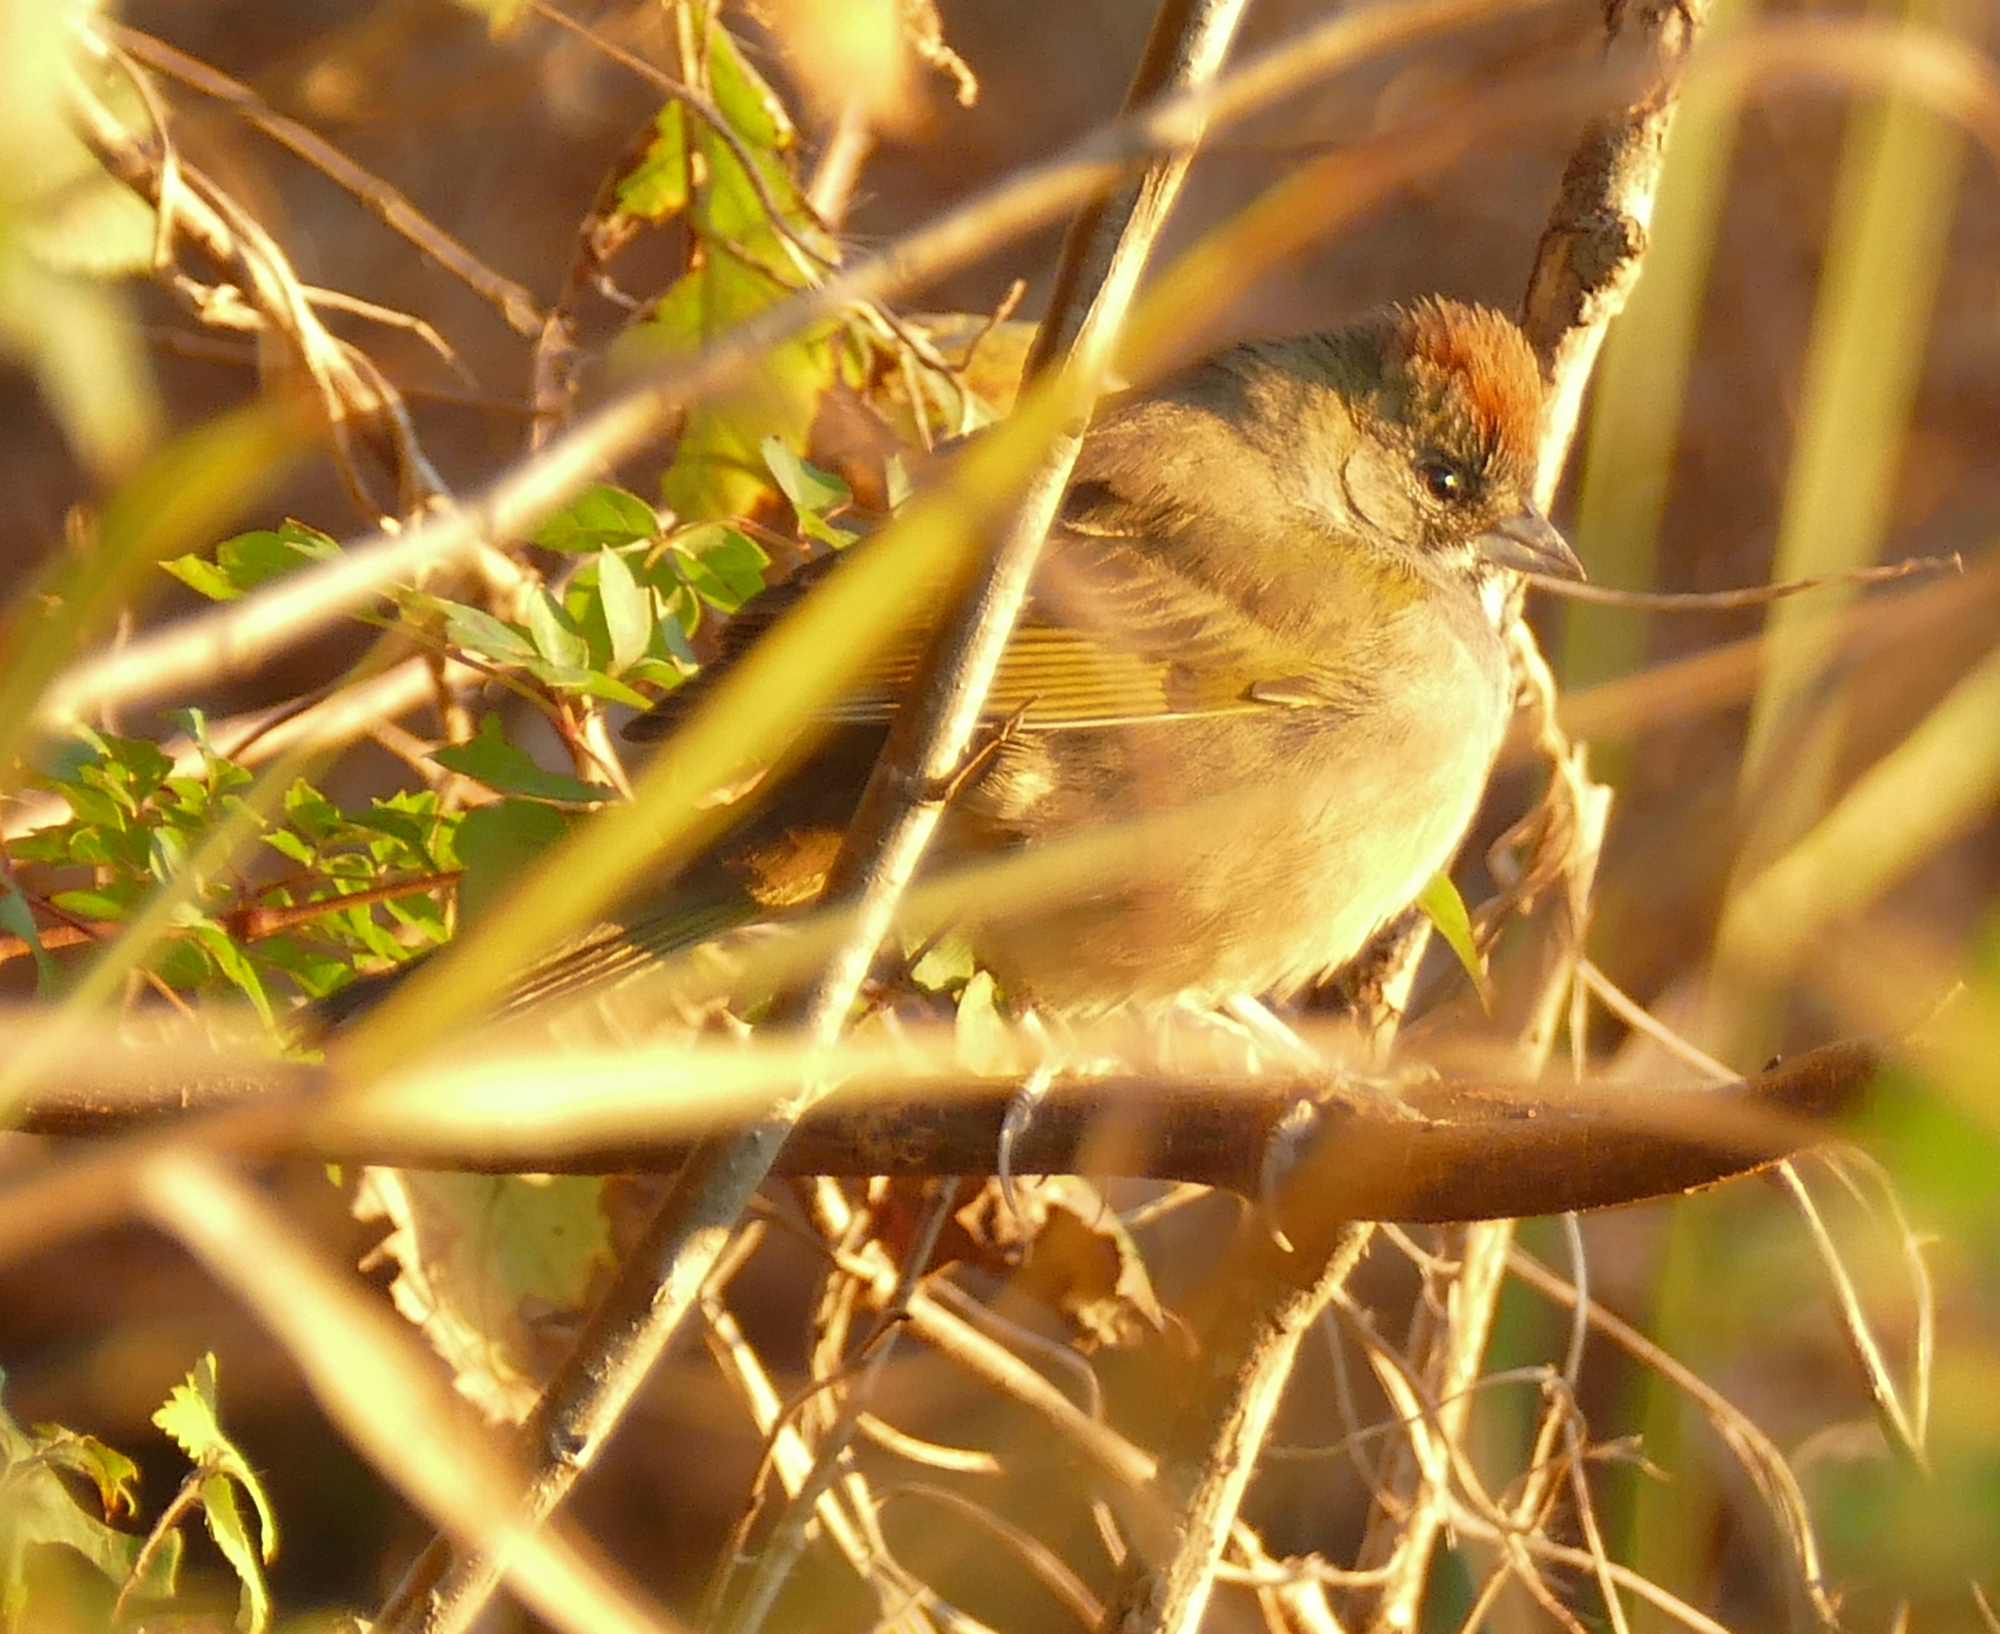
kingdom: Animalia
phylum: Chordata
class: Aves
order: Passeriformes
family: Passerellidae
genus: Pipilo
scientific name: Pipilo chlorurus
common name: Green-tailed towhee
